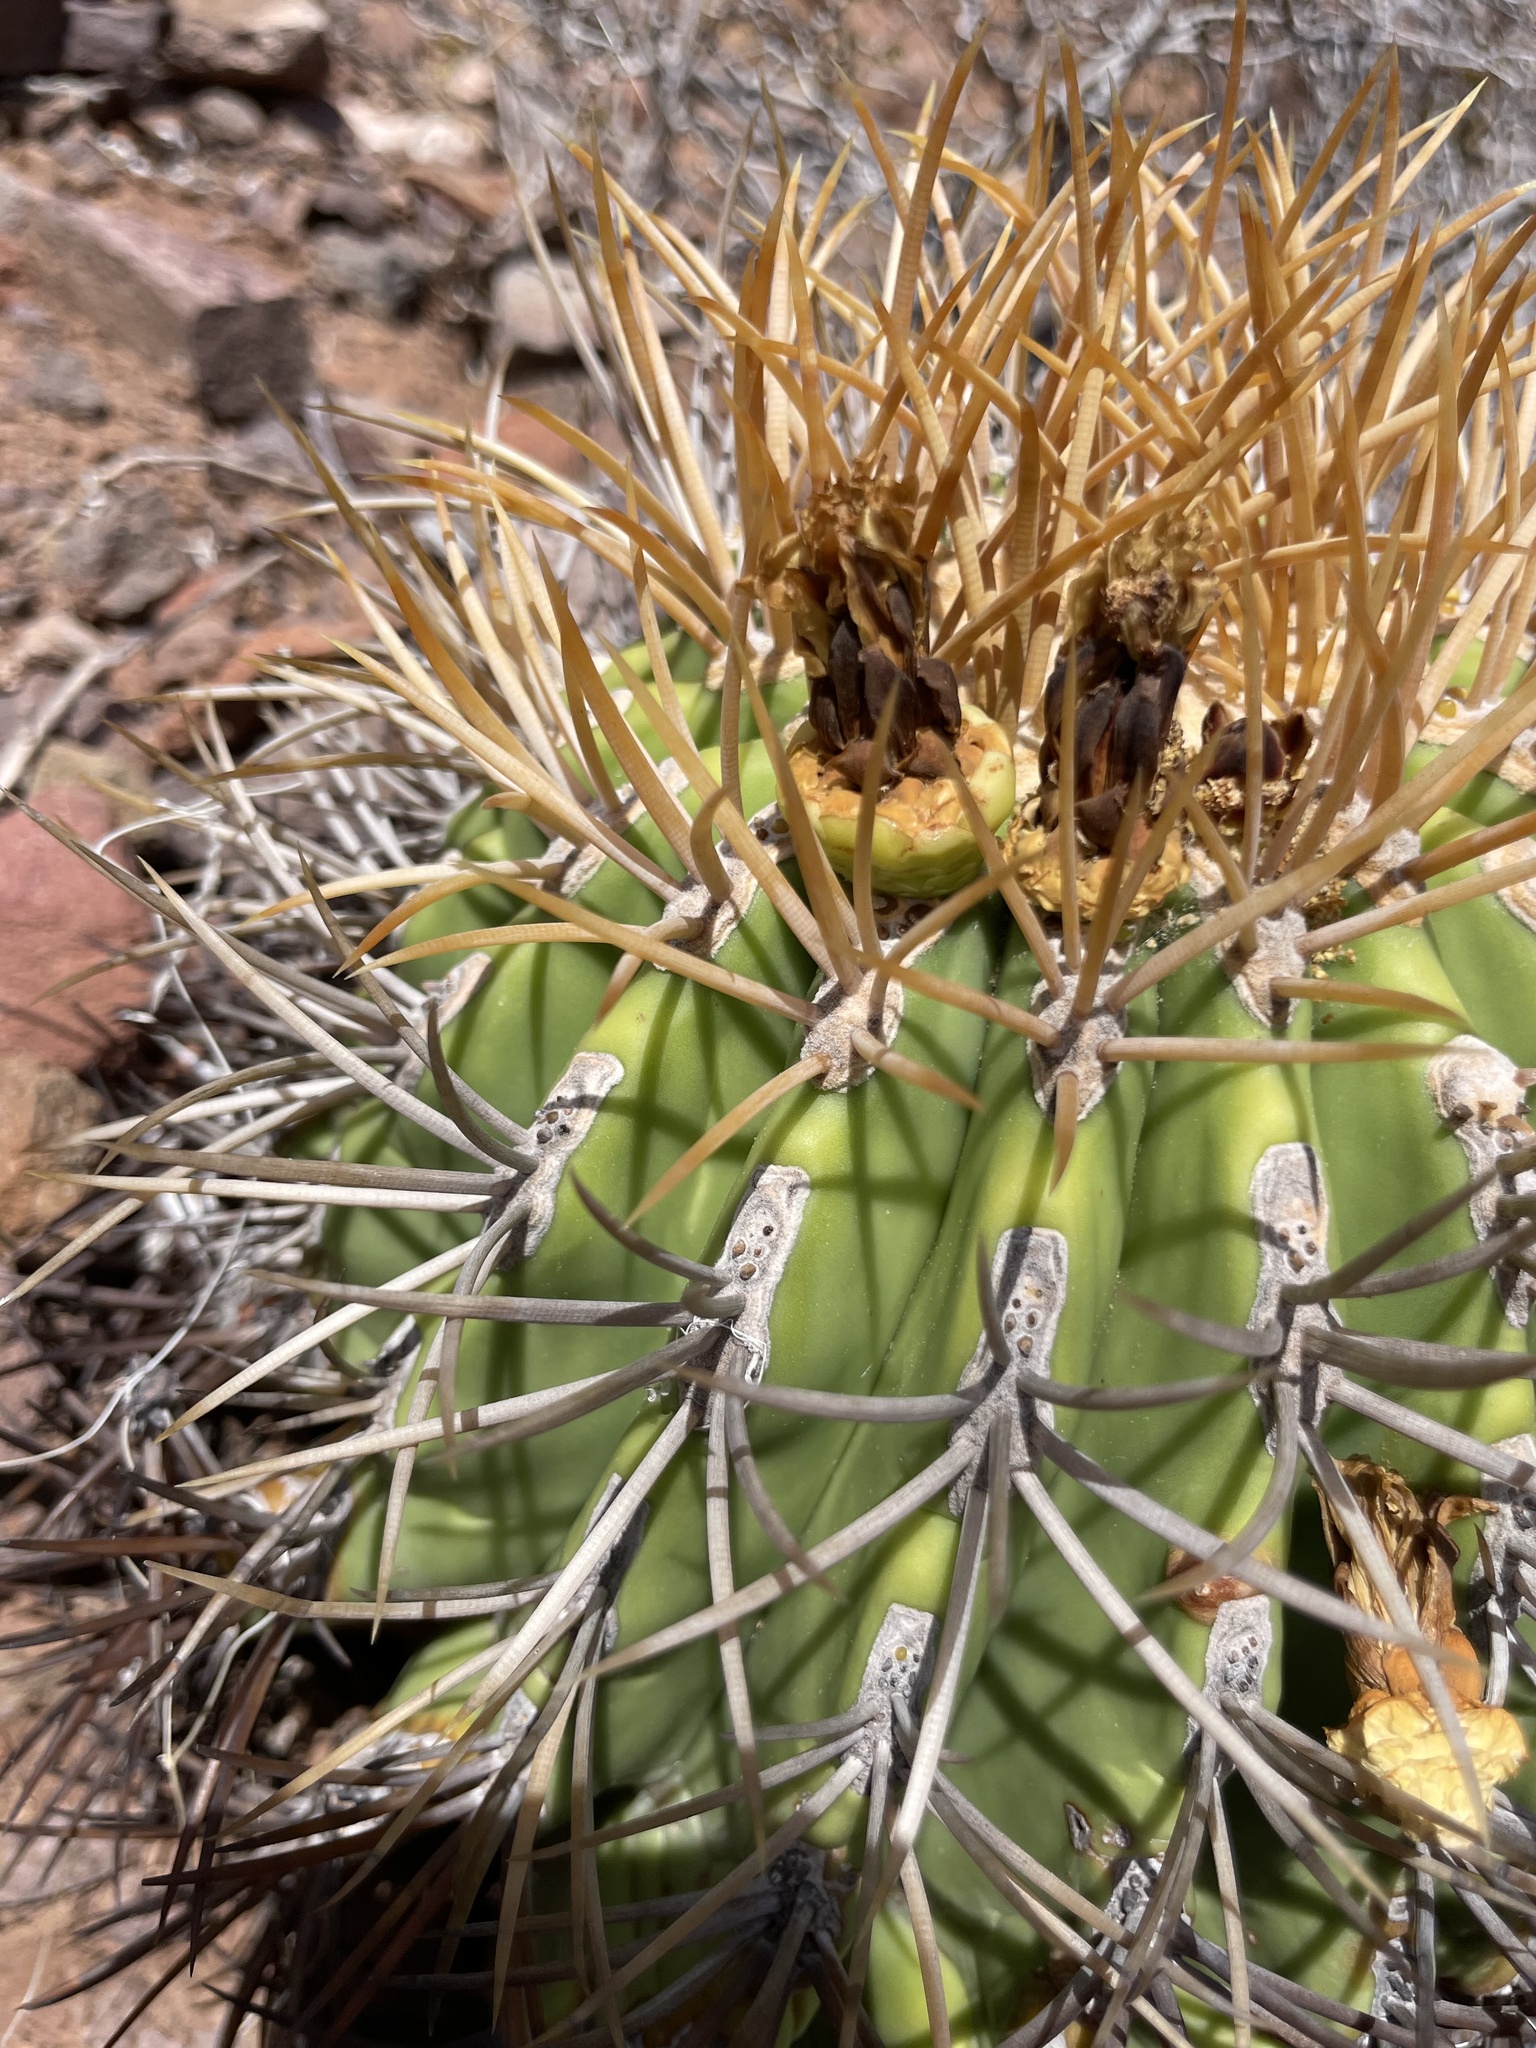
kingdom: Plantae
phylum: Tracheophyta
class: Magnoliopsida
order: Caryophyllales
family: Cactaceae
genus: Ferocactus
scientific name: Ferocactus diguetii
